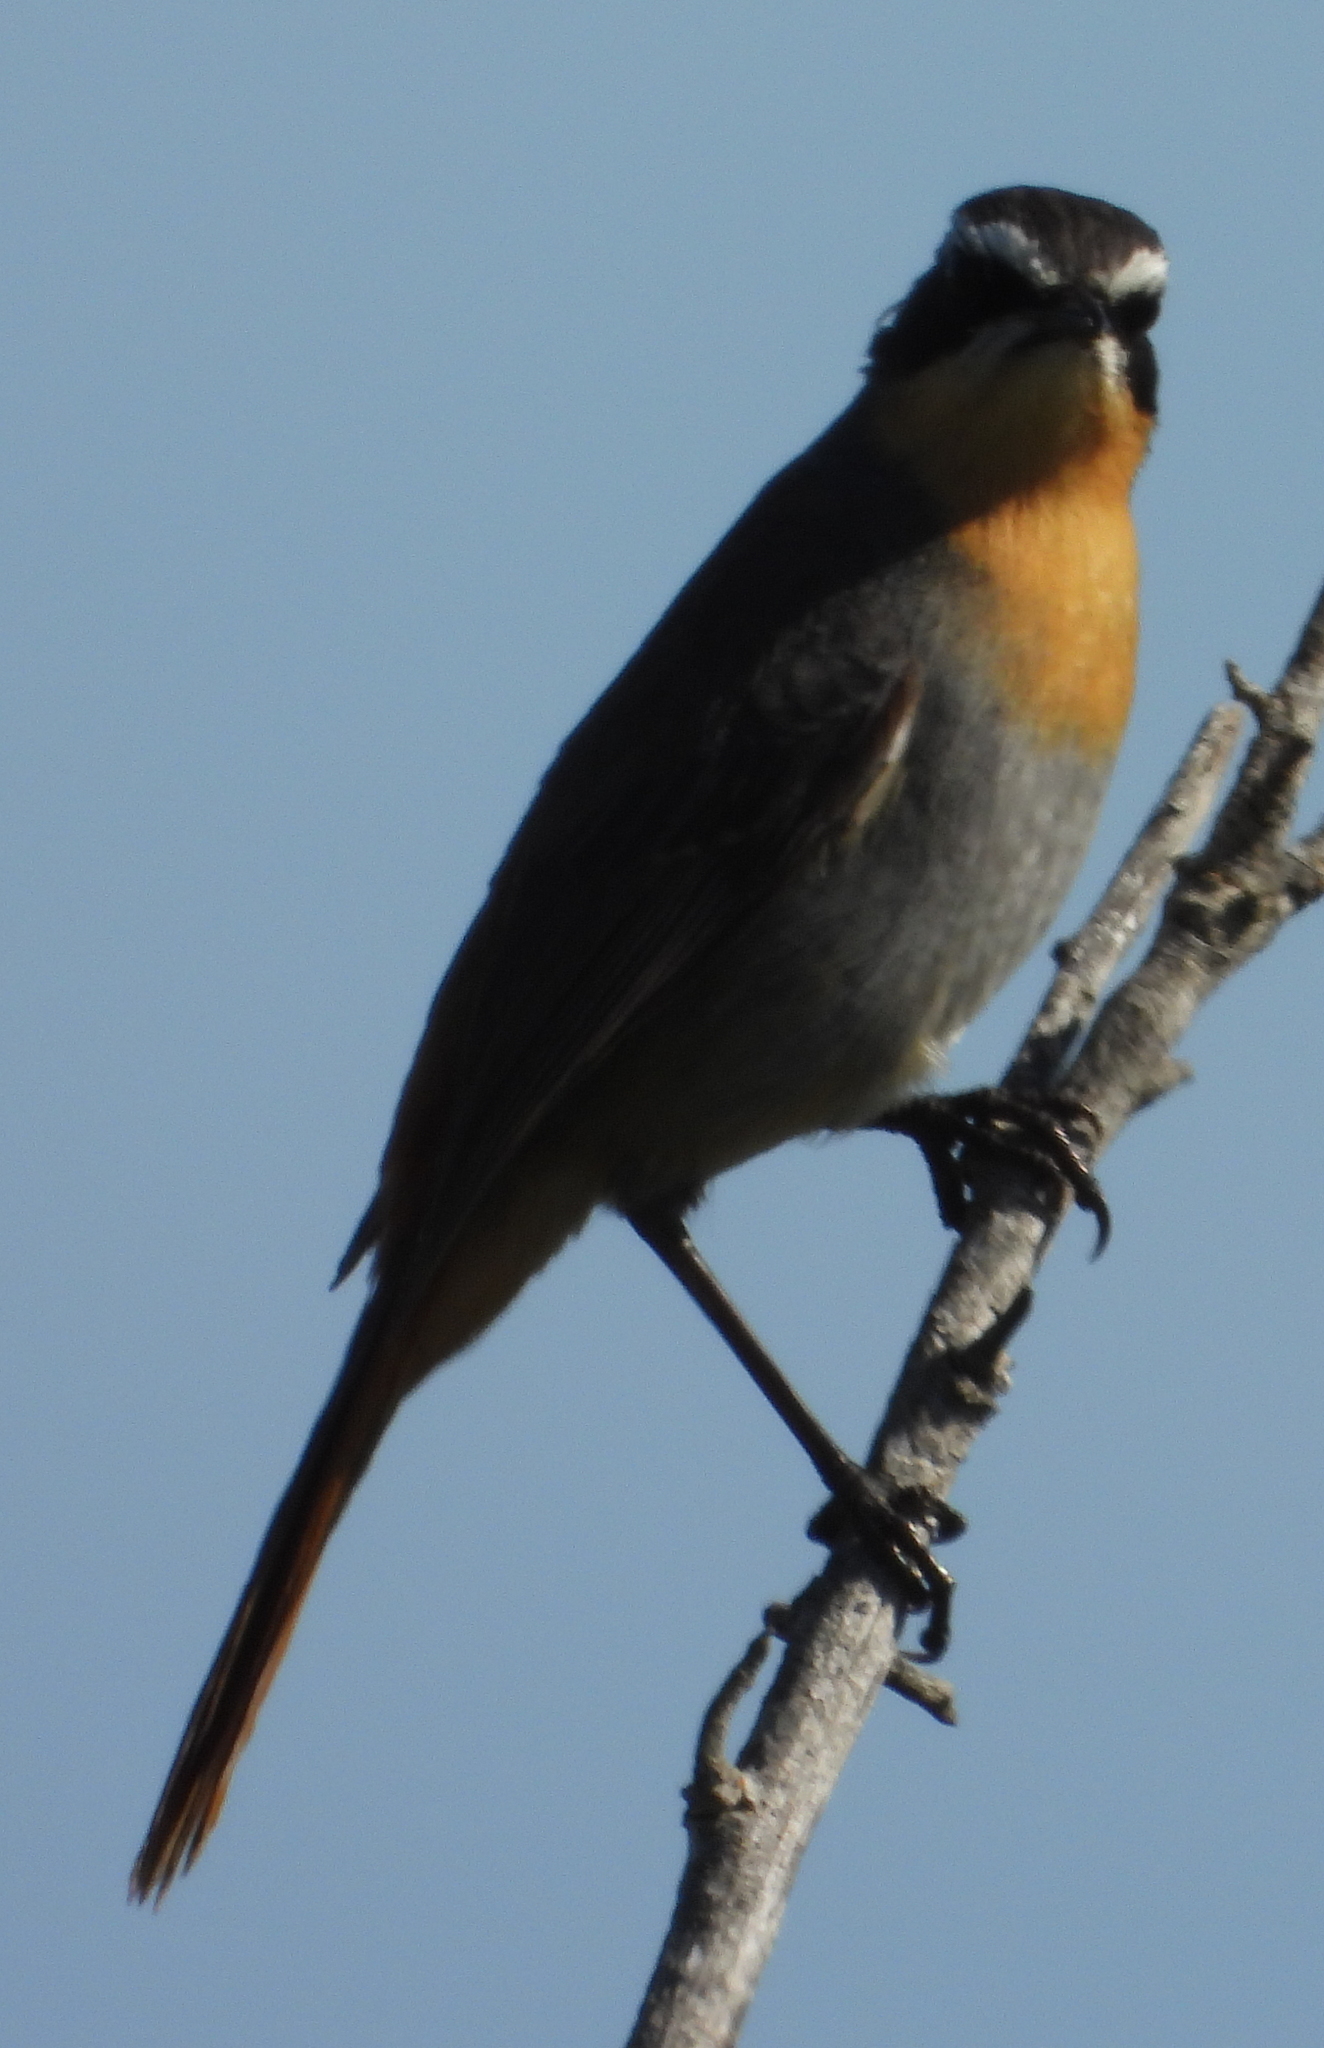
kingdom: Animalia
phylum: Chordata
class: Aves
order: Passeriformes
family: Muscicapidae
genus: Cossypha
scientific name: Cossypha caffra
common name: Cape robin-chat
